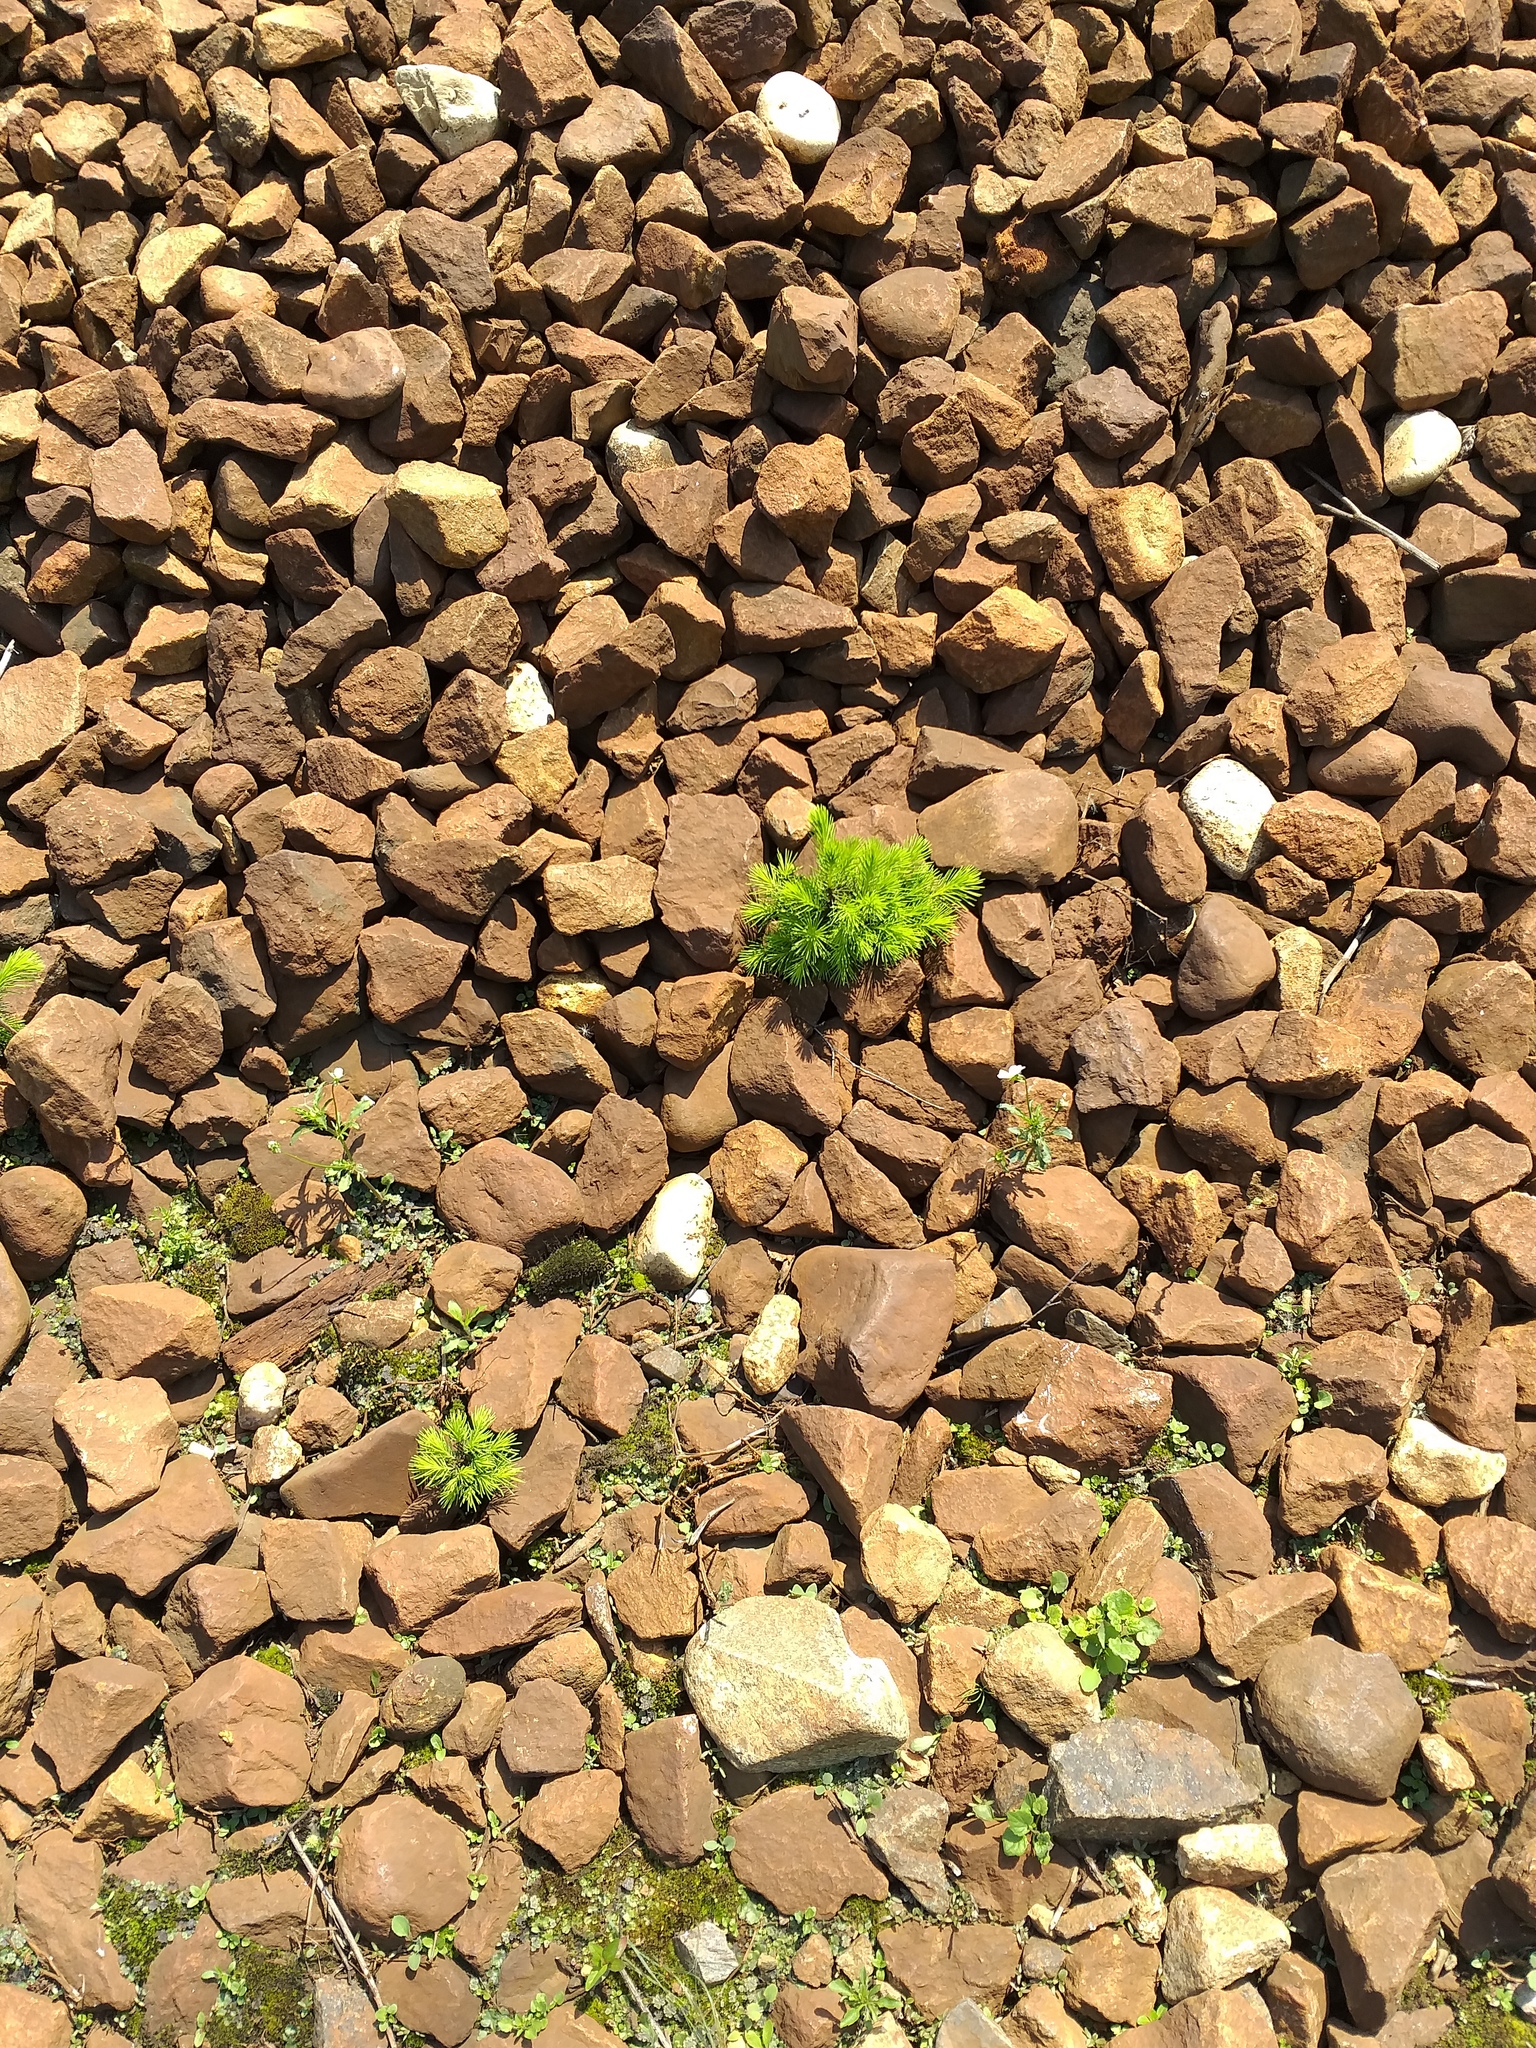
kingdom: Plantae
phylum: Tracheophyta
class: Pinopsida
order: Pinales
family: Pinaceae
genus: Picea
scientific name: Picea abies
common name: Norway spruce
